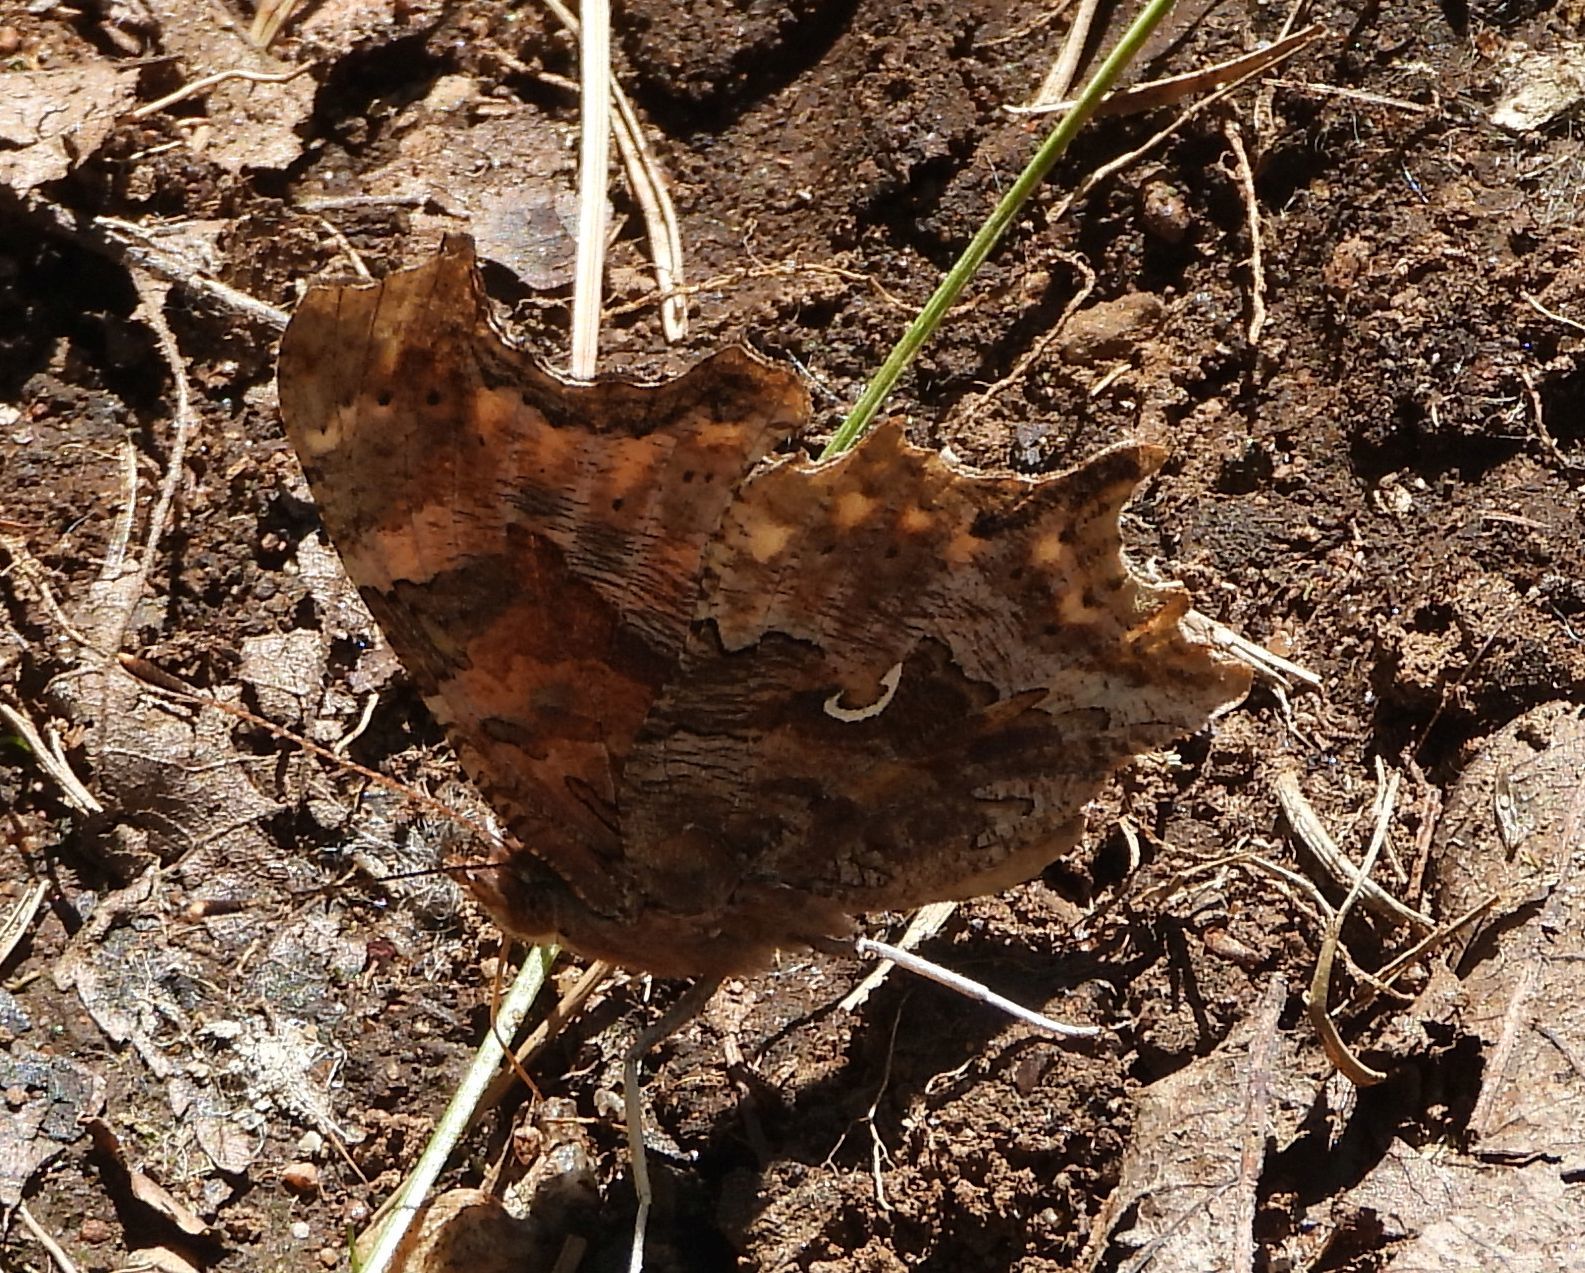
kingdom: Animalia
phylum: Arthropoda
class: Insecta
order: Lepidoptera
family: Nymphalidae
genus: Polygonia
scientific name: Polygonia comma
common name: Eastern comma
